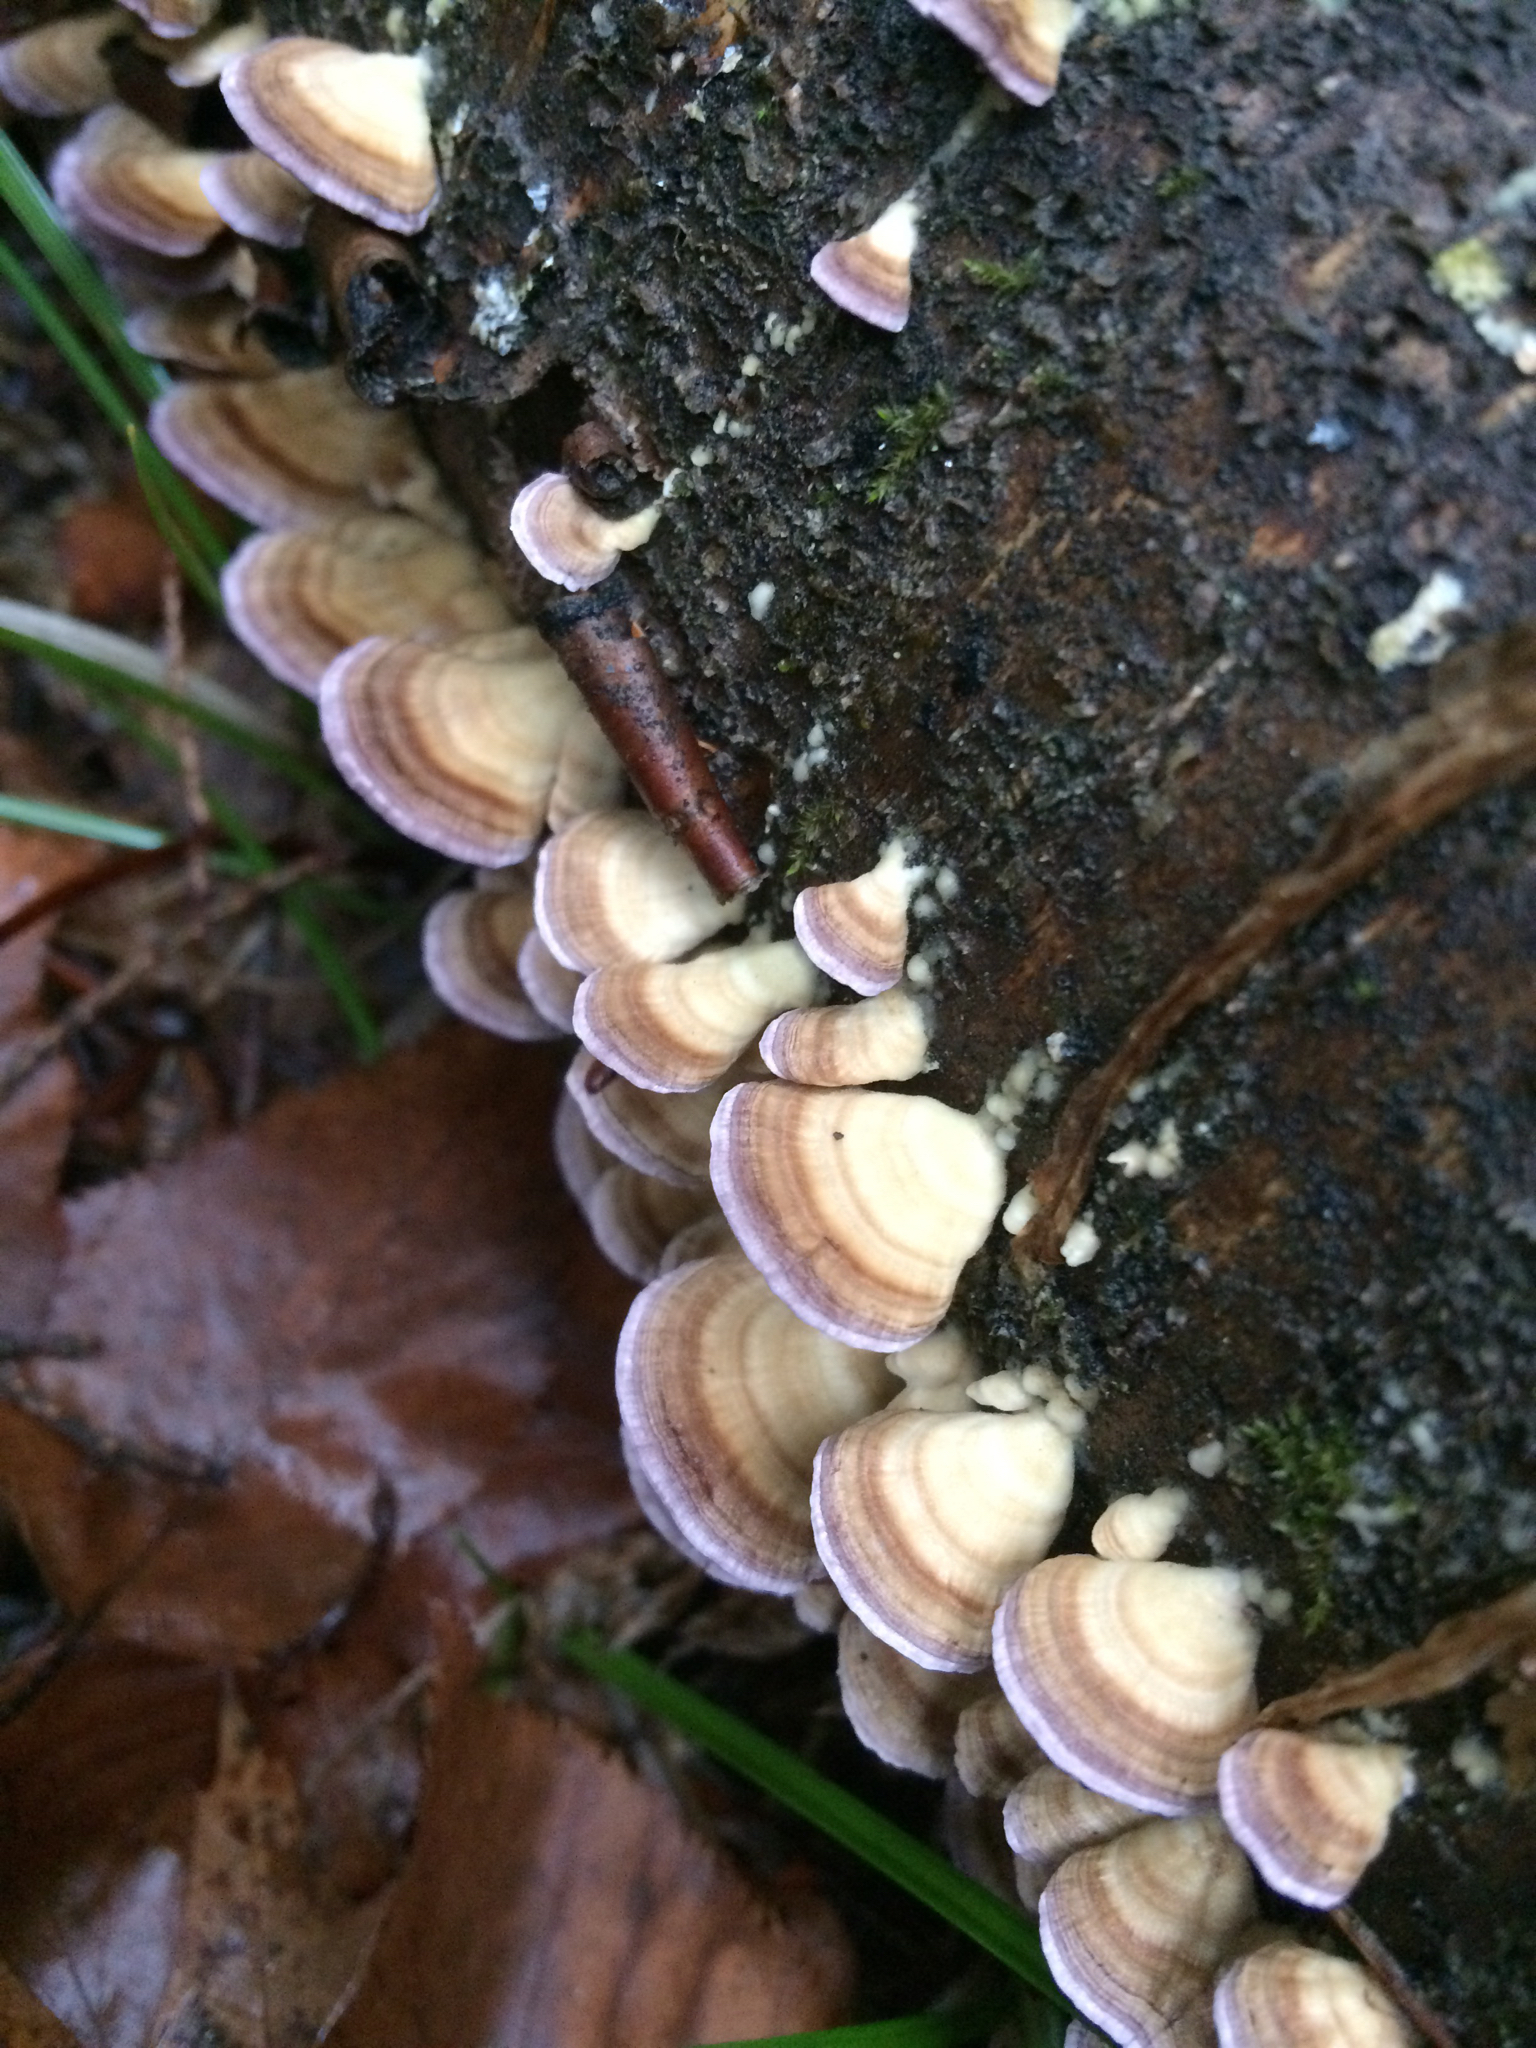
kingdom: Fungi
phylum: Basidiomycota
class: Agaricomycetes
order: Hymenochaetales
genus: Trichaptum
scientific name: Trichaptum biforme
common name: Violet-toothed polypore
